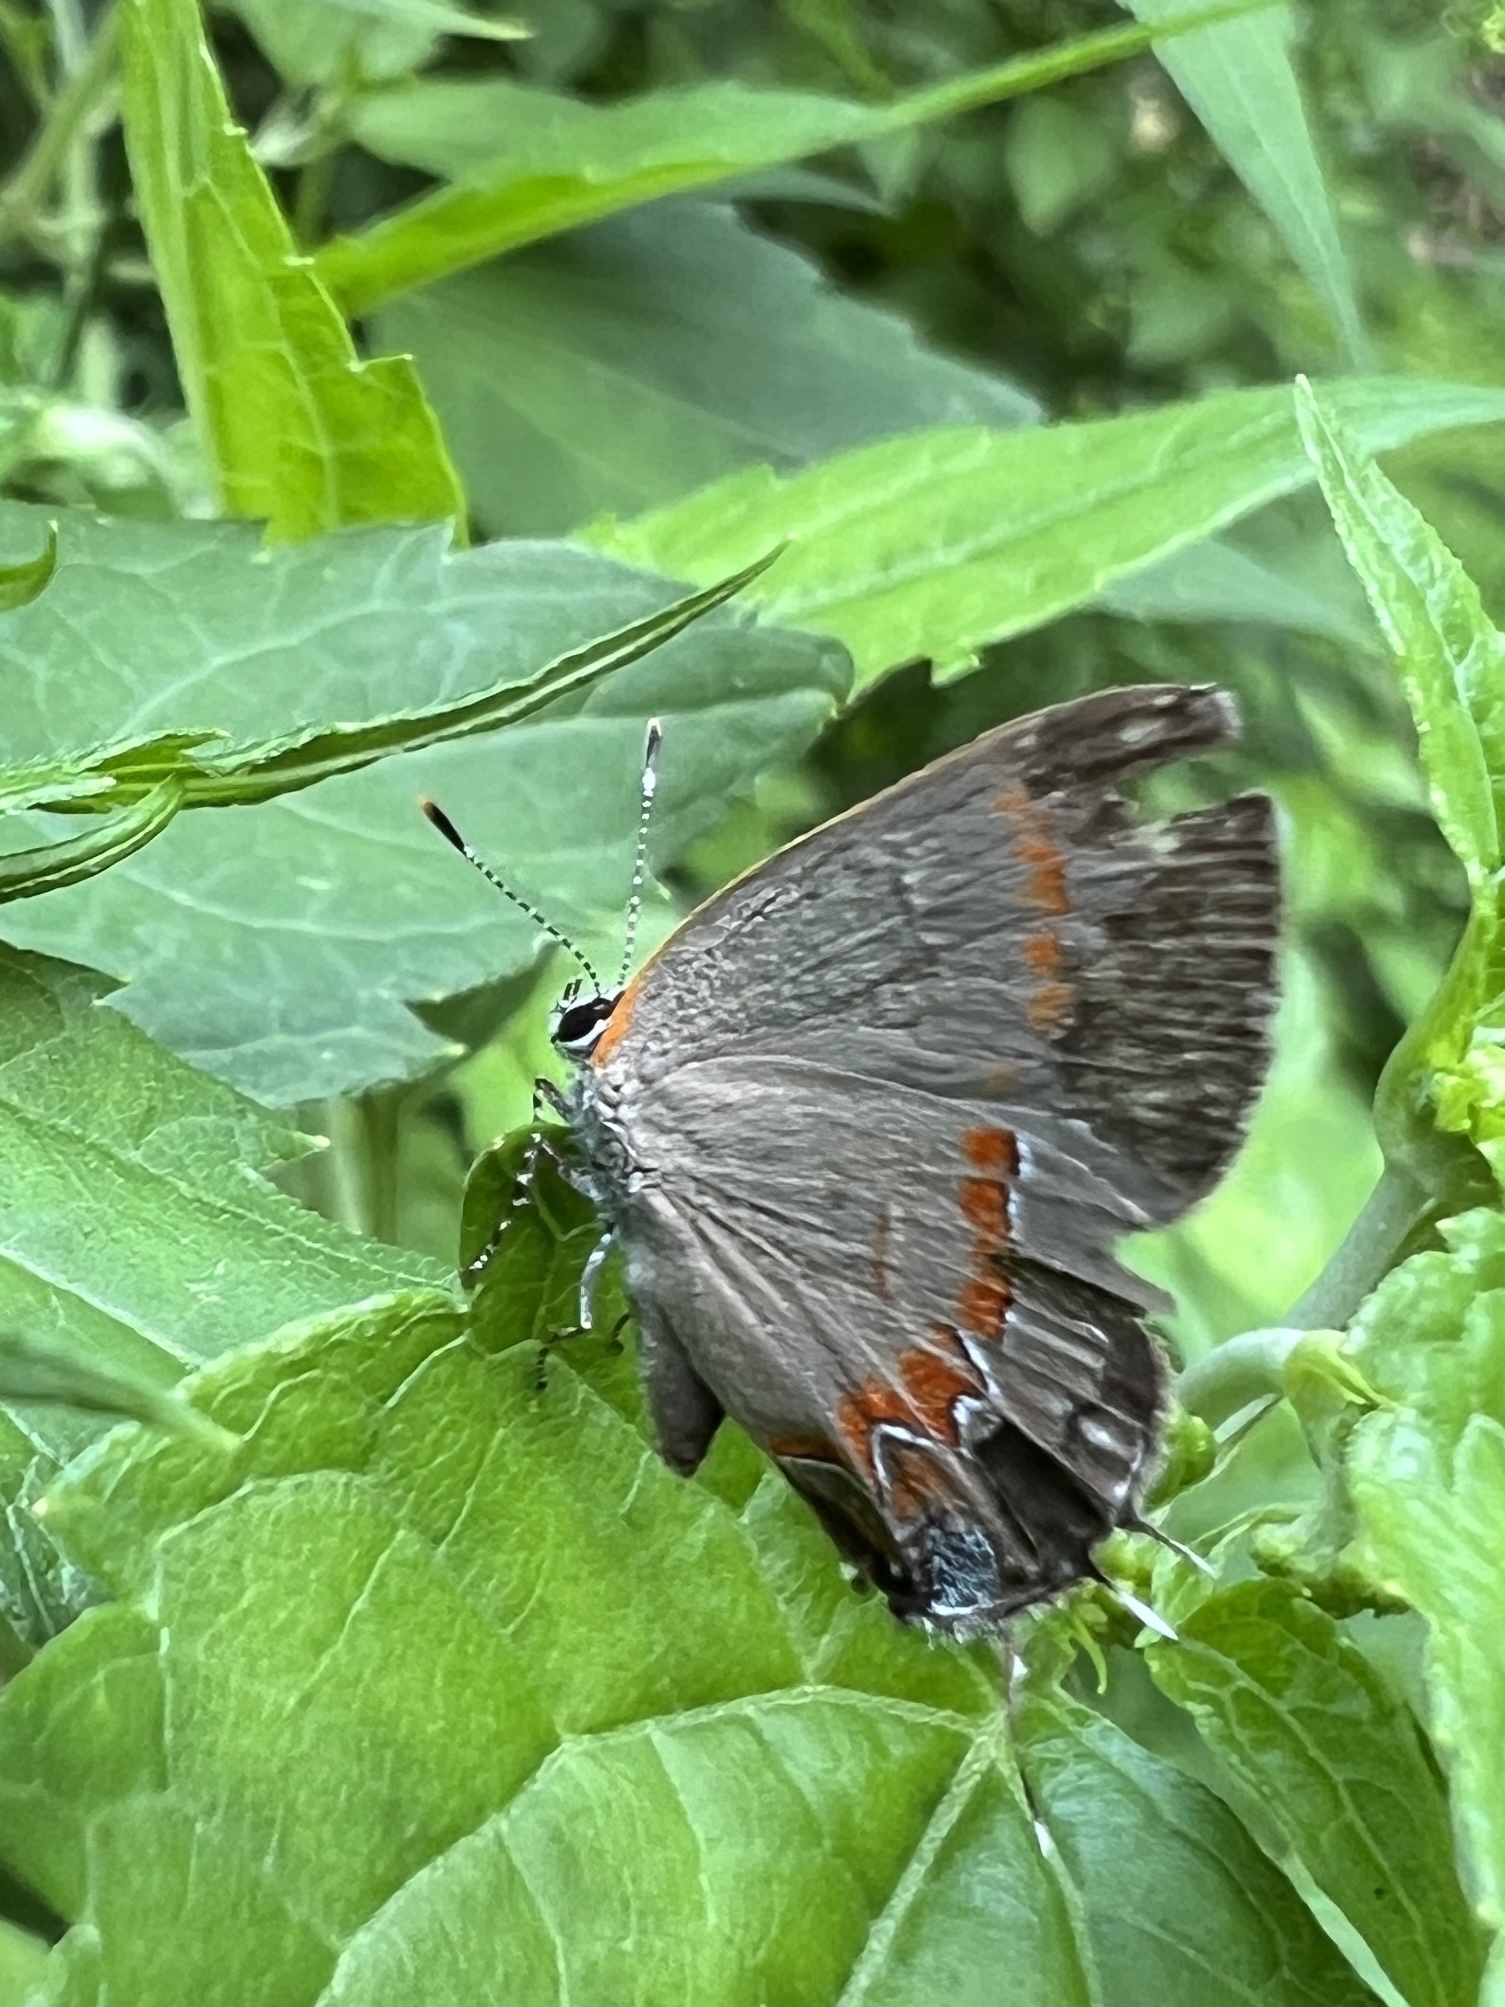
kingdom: Animalia
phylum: Arthropoda
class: Insecta
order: Lepidoptera
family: Lycaenidae
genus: Calycopis
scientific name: Calycopis cecrops
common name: Red-banded hairstreak
